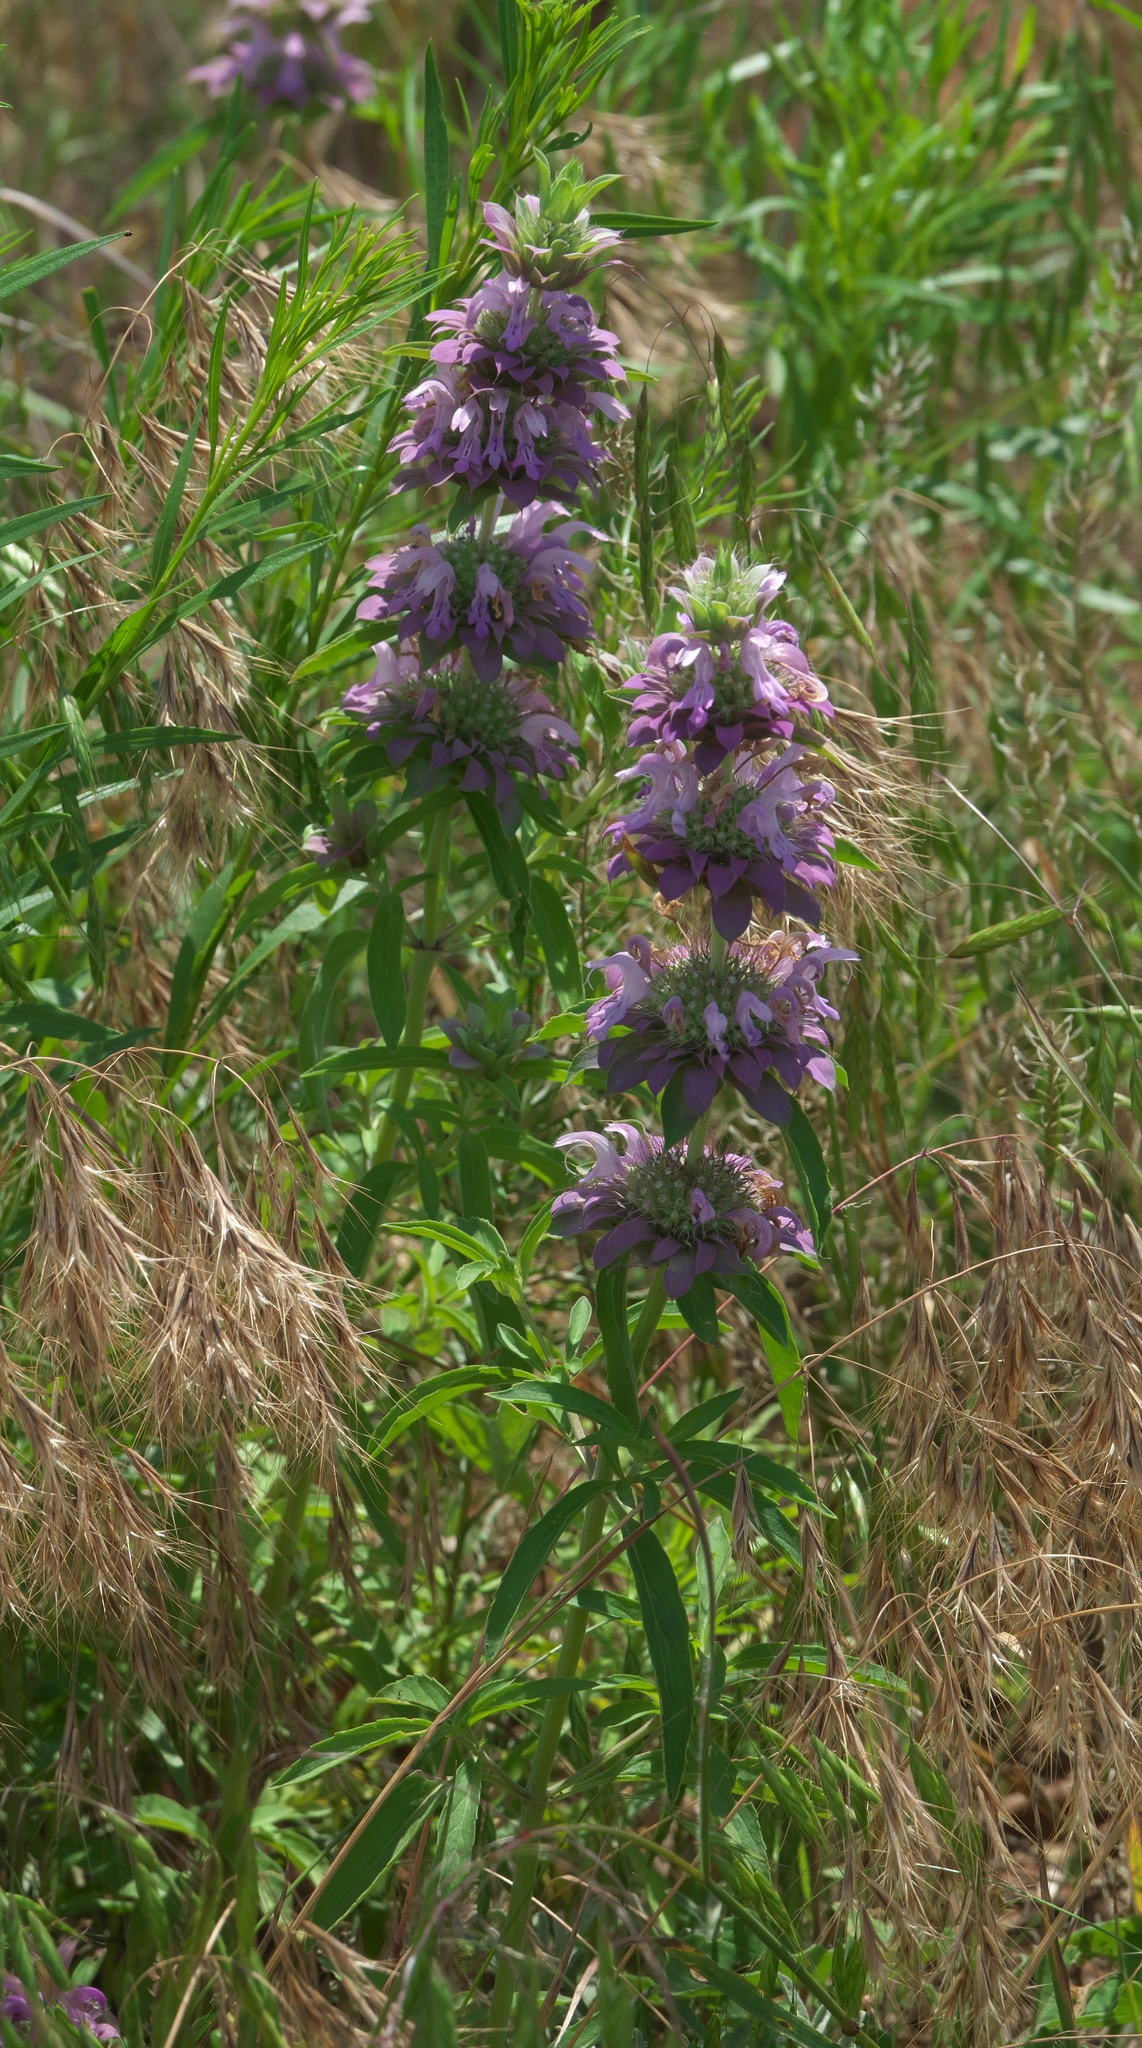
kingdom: Plantae
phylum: Tracheophyta
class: Magnoliopsida
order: Lamiales
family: Lamiaceae
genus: Monarda
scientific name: Monarda citriodora
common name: Lemon beebalm
